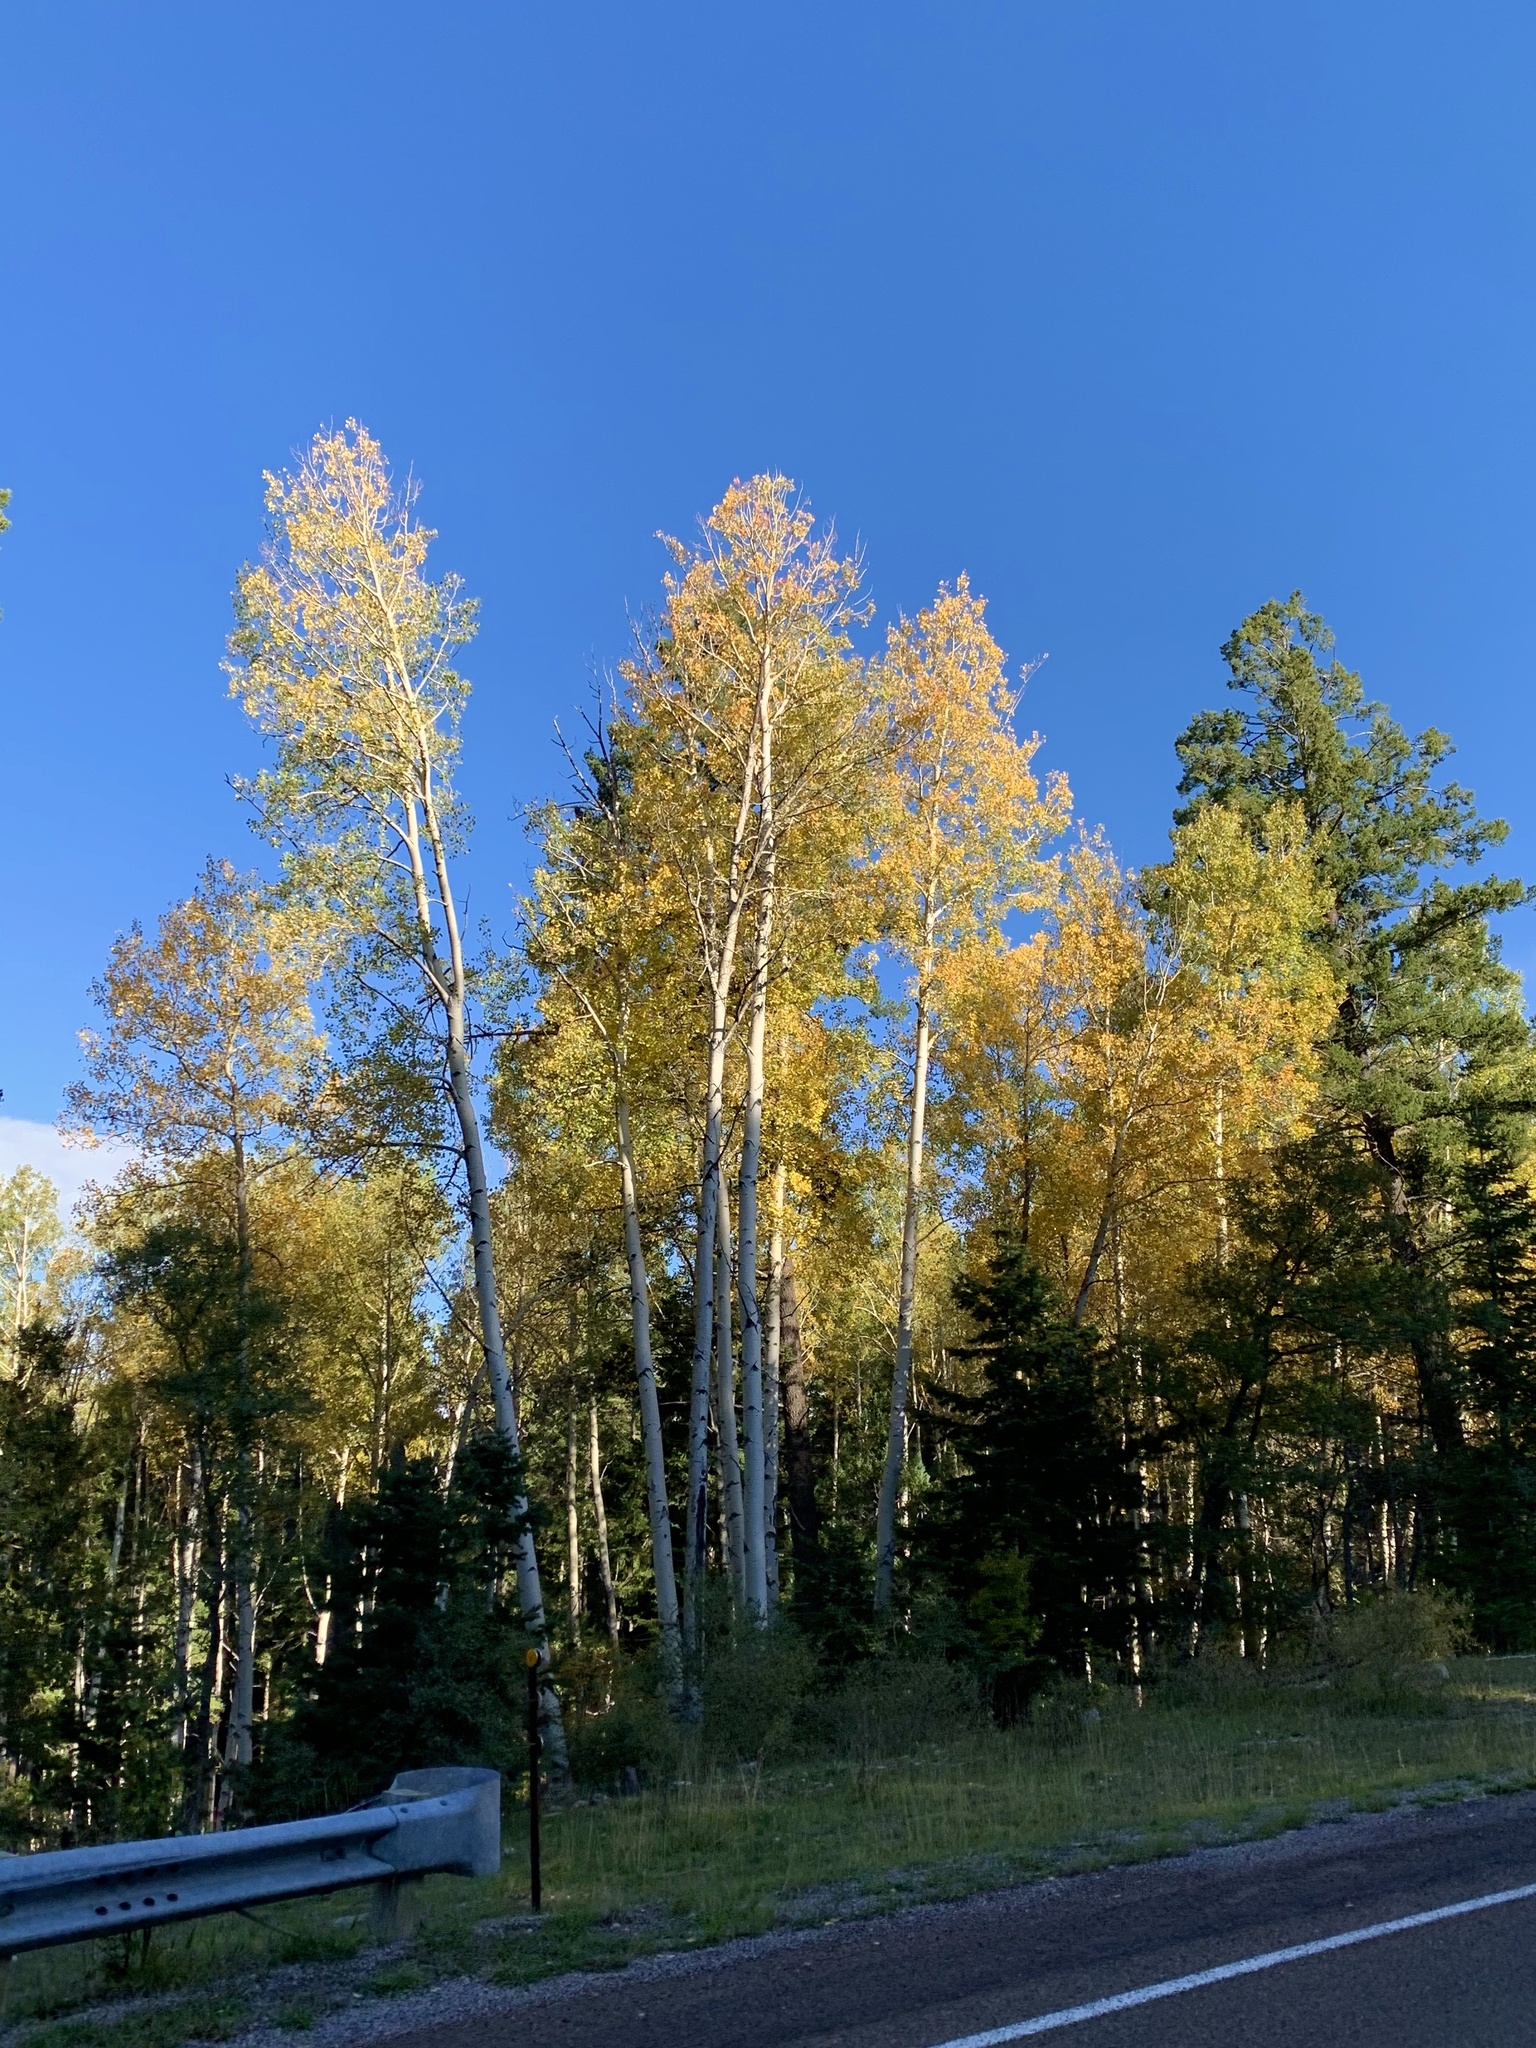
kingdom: Plantae
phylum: Tracheophyta
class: Magnoliopsida
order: Malpighiales
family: Salicaceae
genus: Populus
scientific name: Populus tremuloides
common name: Quaking aspen
